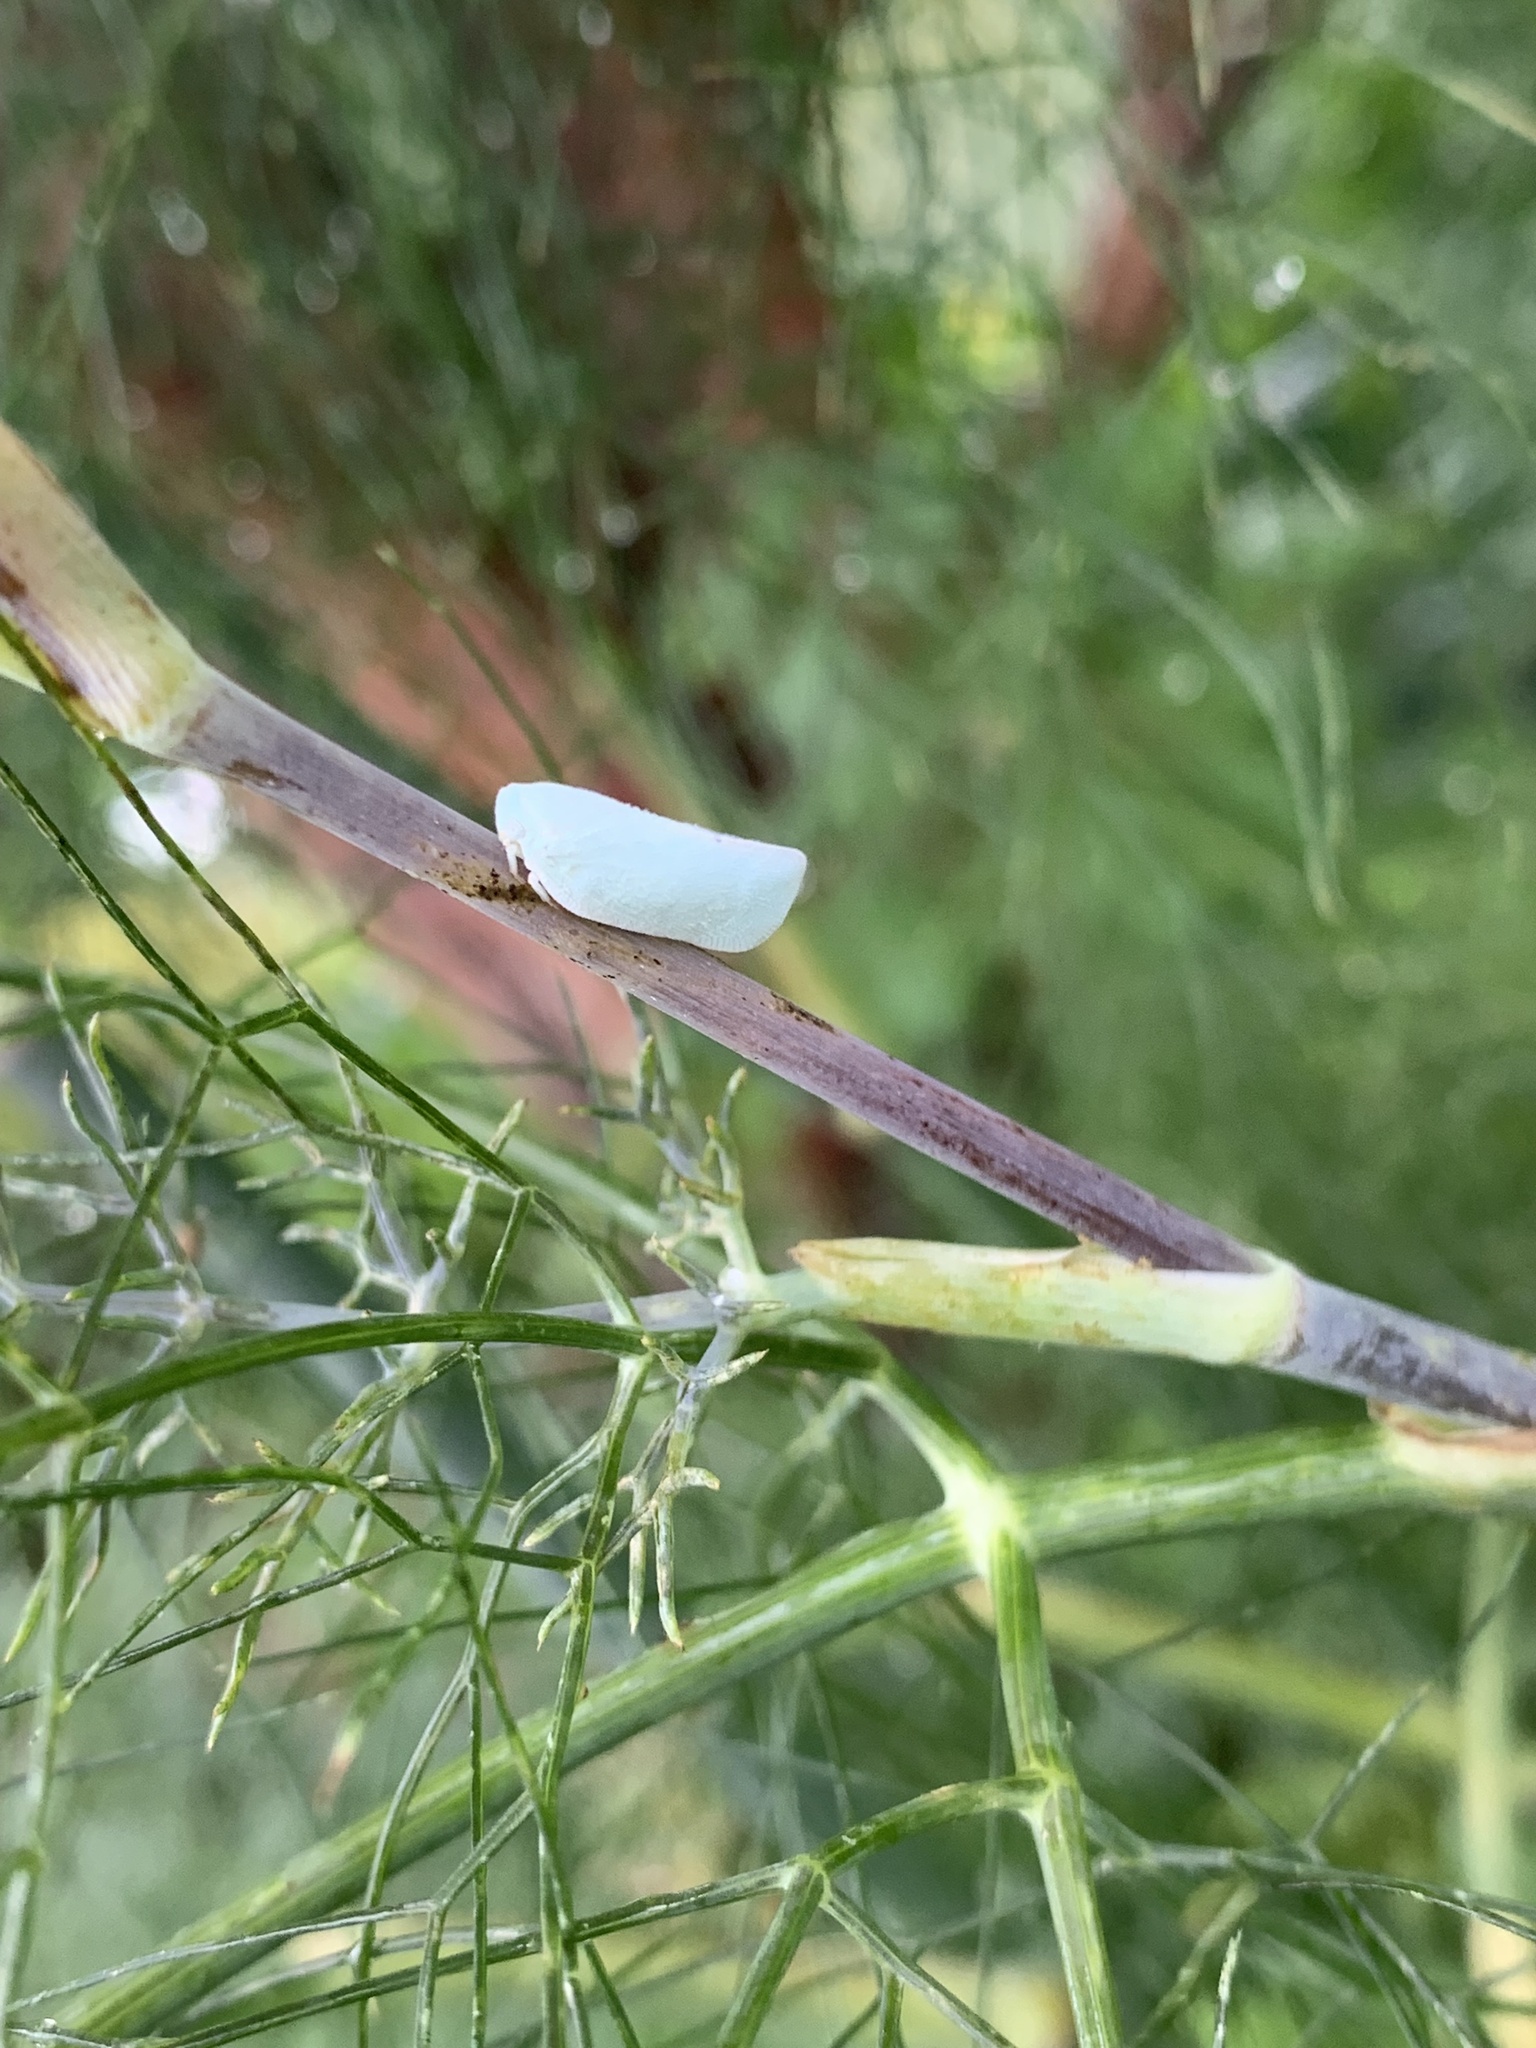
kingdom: Animalia
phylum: Arthropoda
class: Insecta
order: Hemiptera
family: Flatidae
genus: Flatormenis
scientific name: Flatormenis proxima
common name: Northern flatid planthopper
